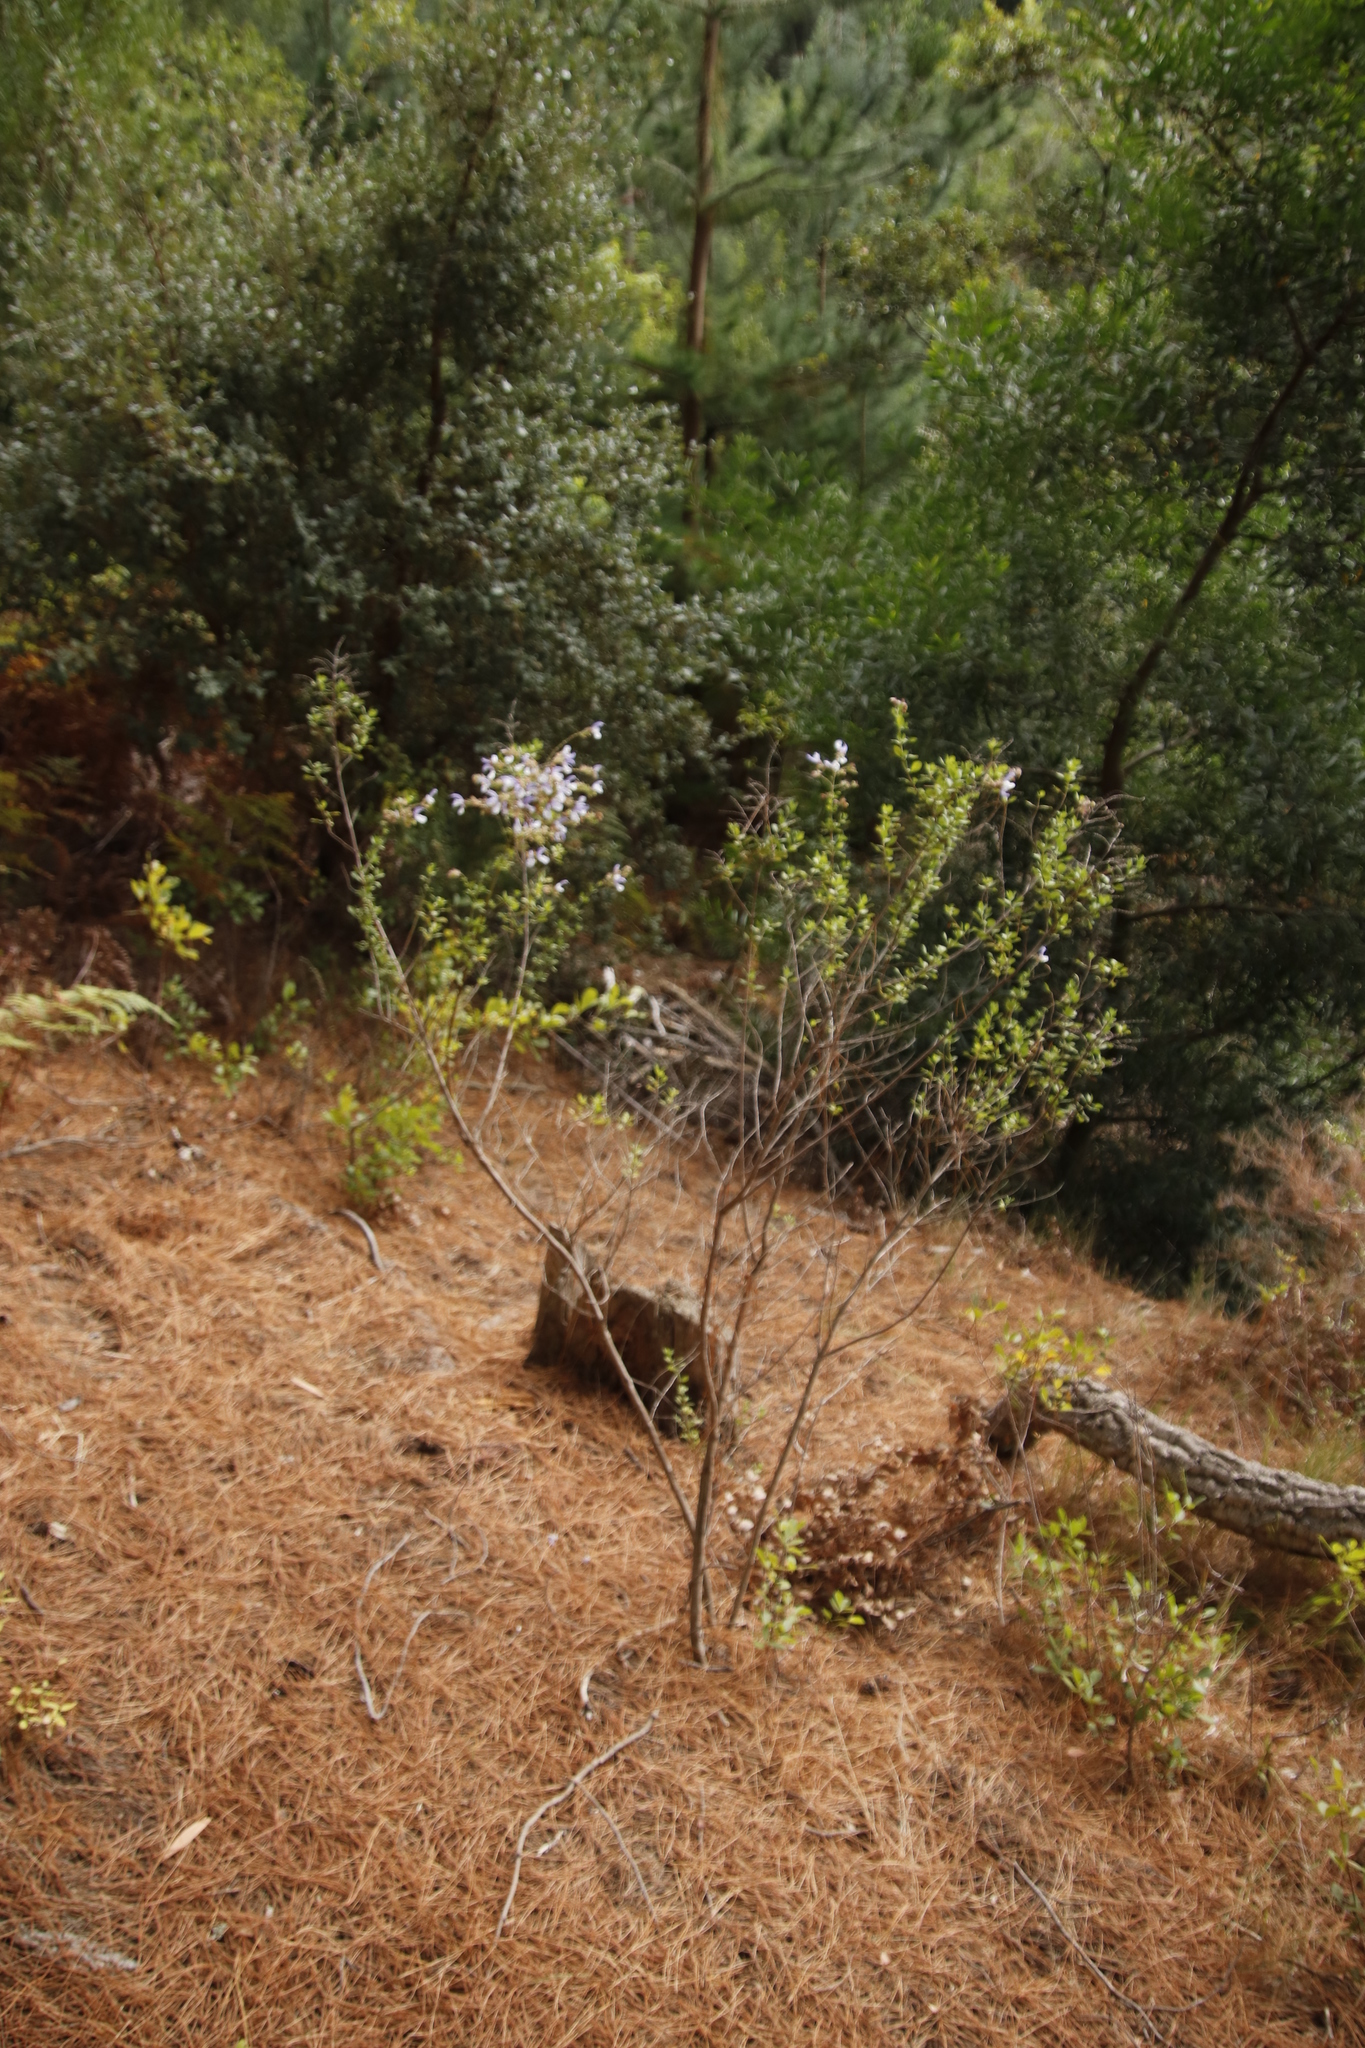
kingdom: Plantae
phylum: Tracheophyta
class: Magnoliopsida
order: Lamiales
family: Lamiaceae
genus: Salvia
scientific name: Salvia chamelaeagnea
